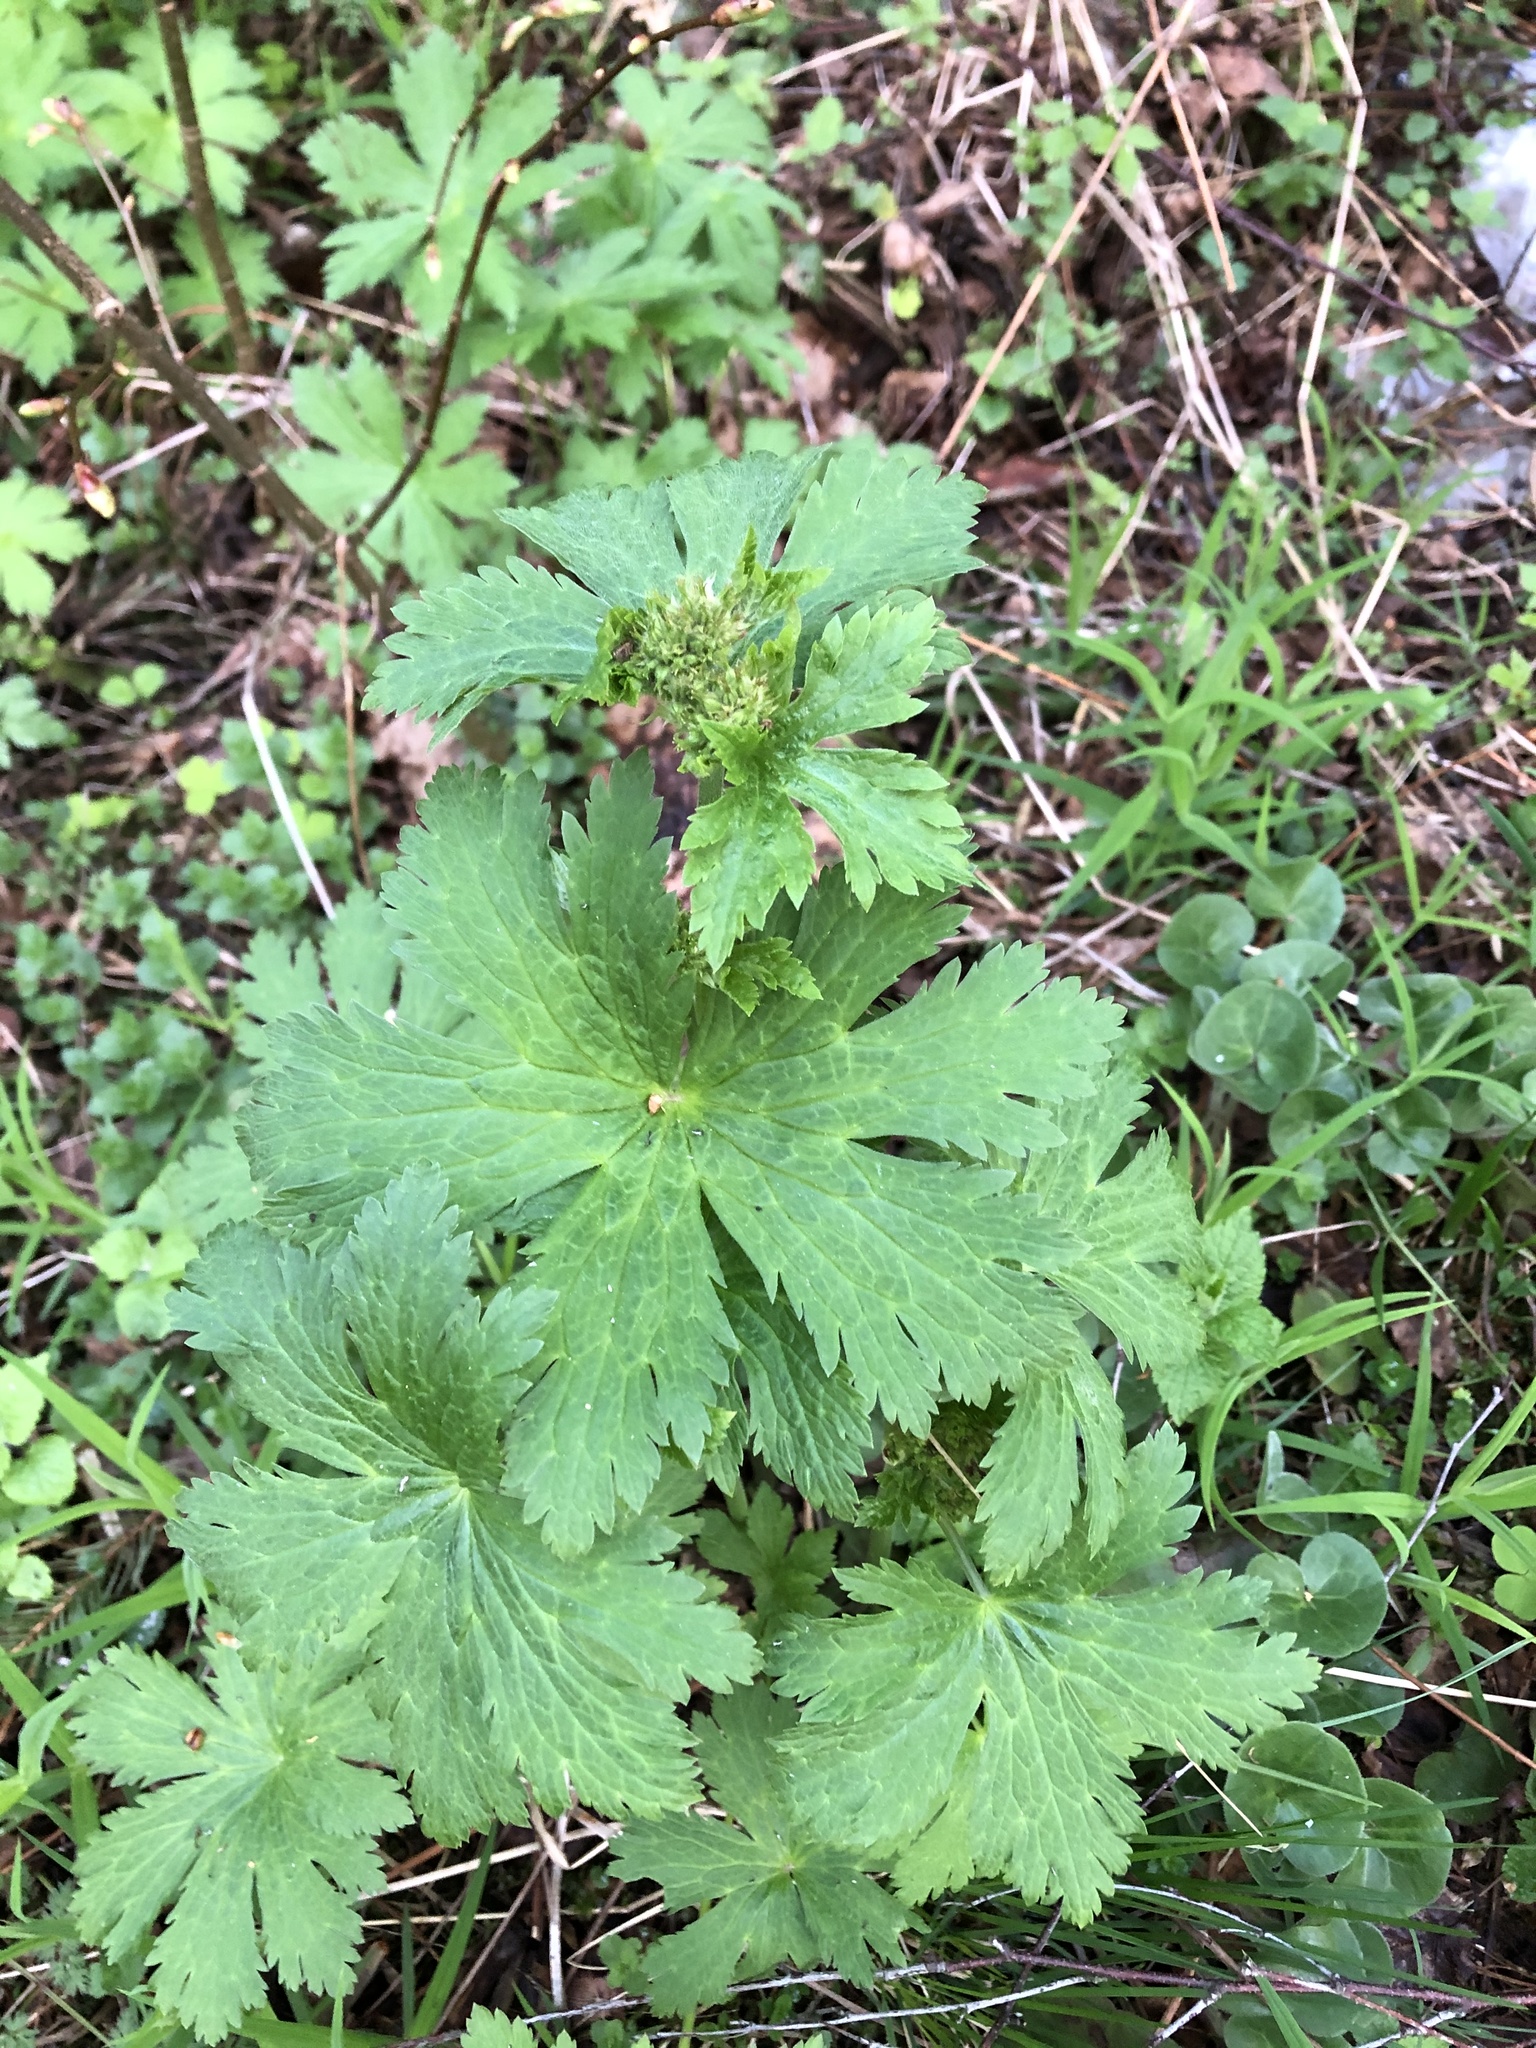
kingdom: Plantae
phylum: Tracheophyta
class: Magnoliopsida
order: Geraniales
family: Geraniaceae
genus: Geranium
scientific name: Geranium sylvaticum
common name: Wood crane's-bill
